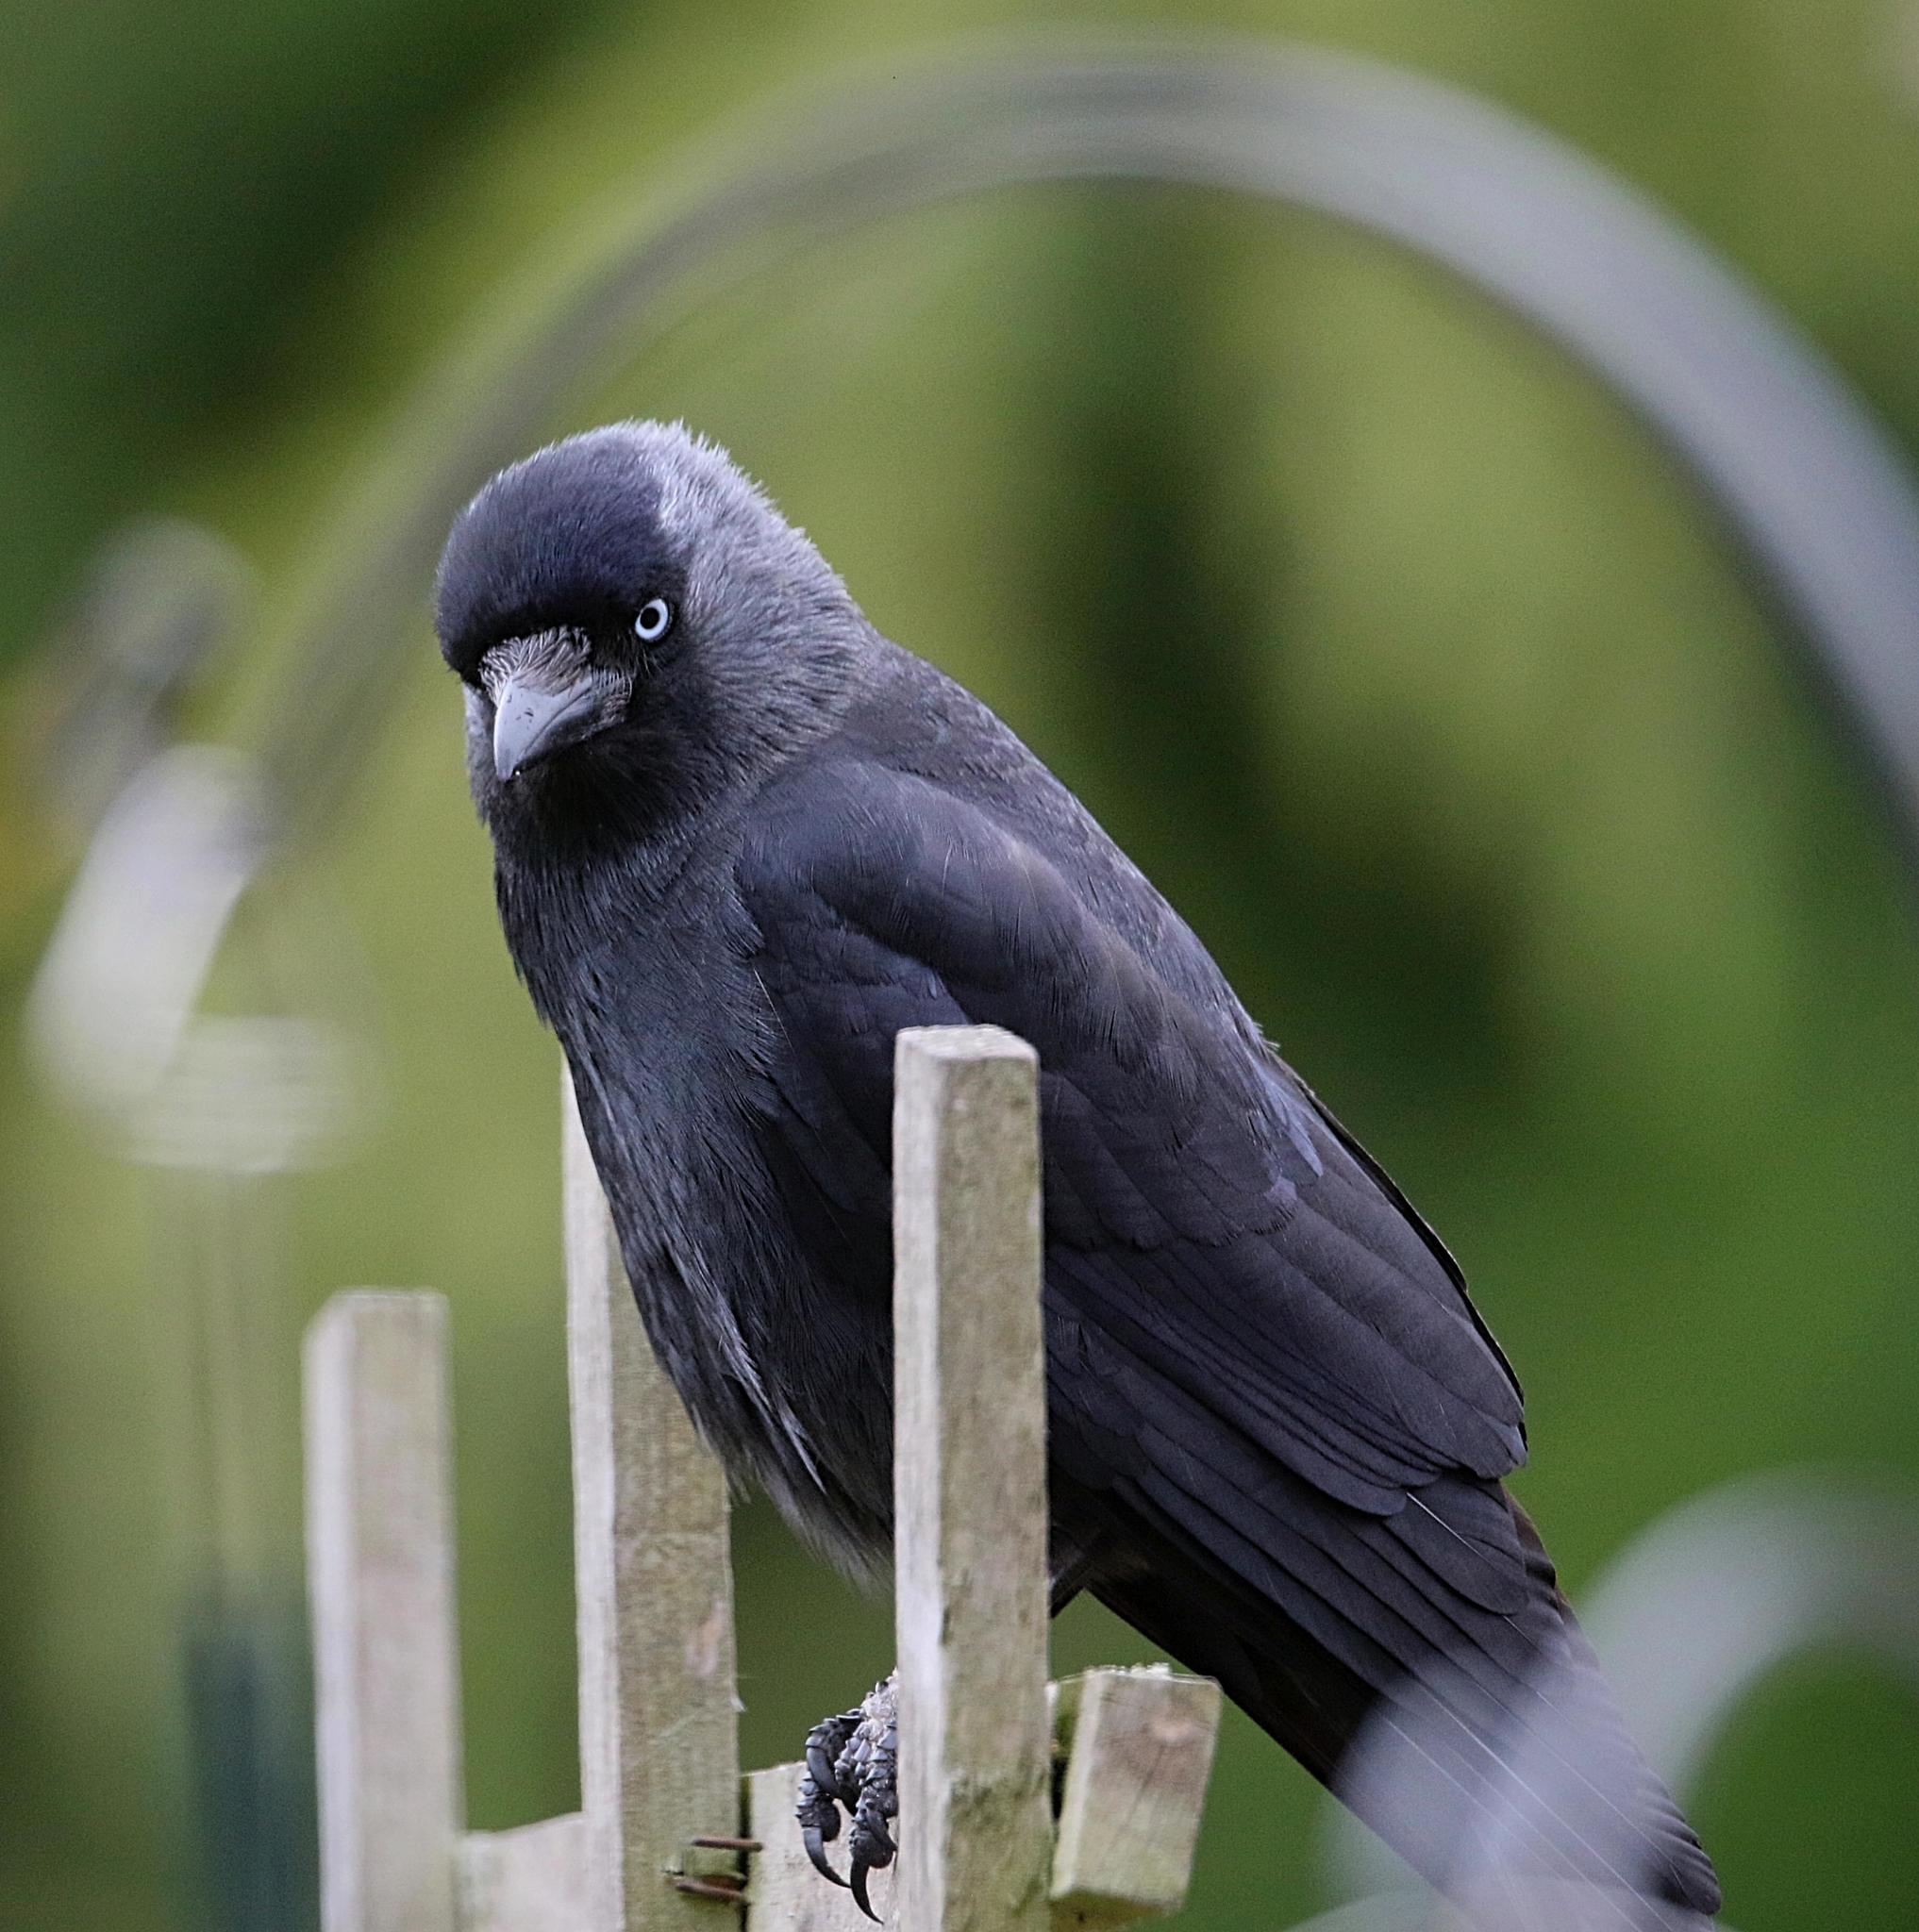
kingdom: Animalia
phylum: Chordata
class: Aves
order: Passeriformes
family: Corvidae
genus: Coloeus
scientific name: Coloeus monedula
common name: Western jackdaw
